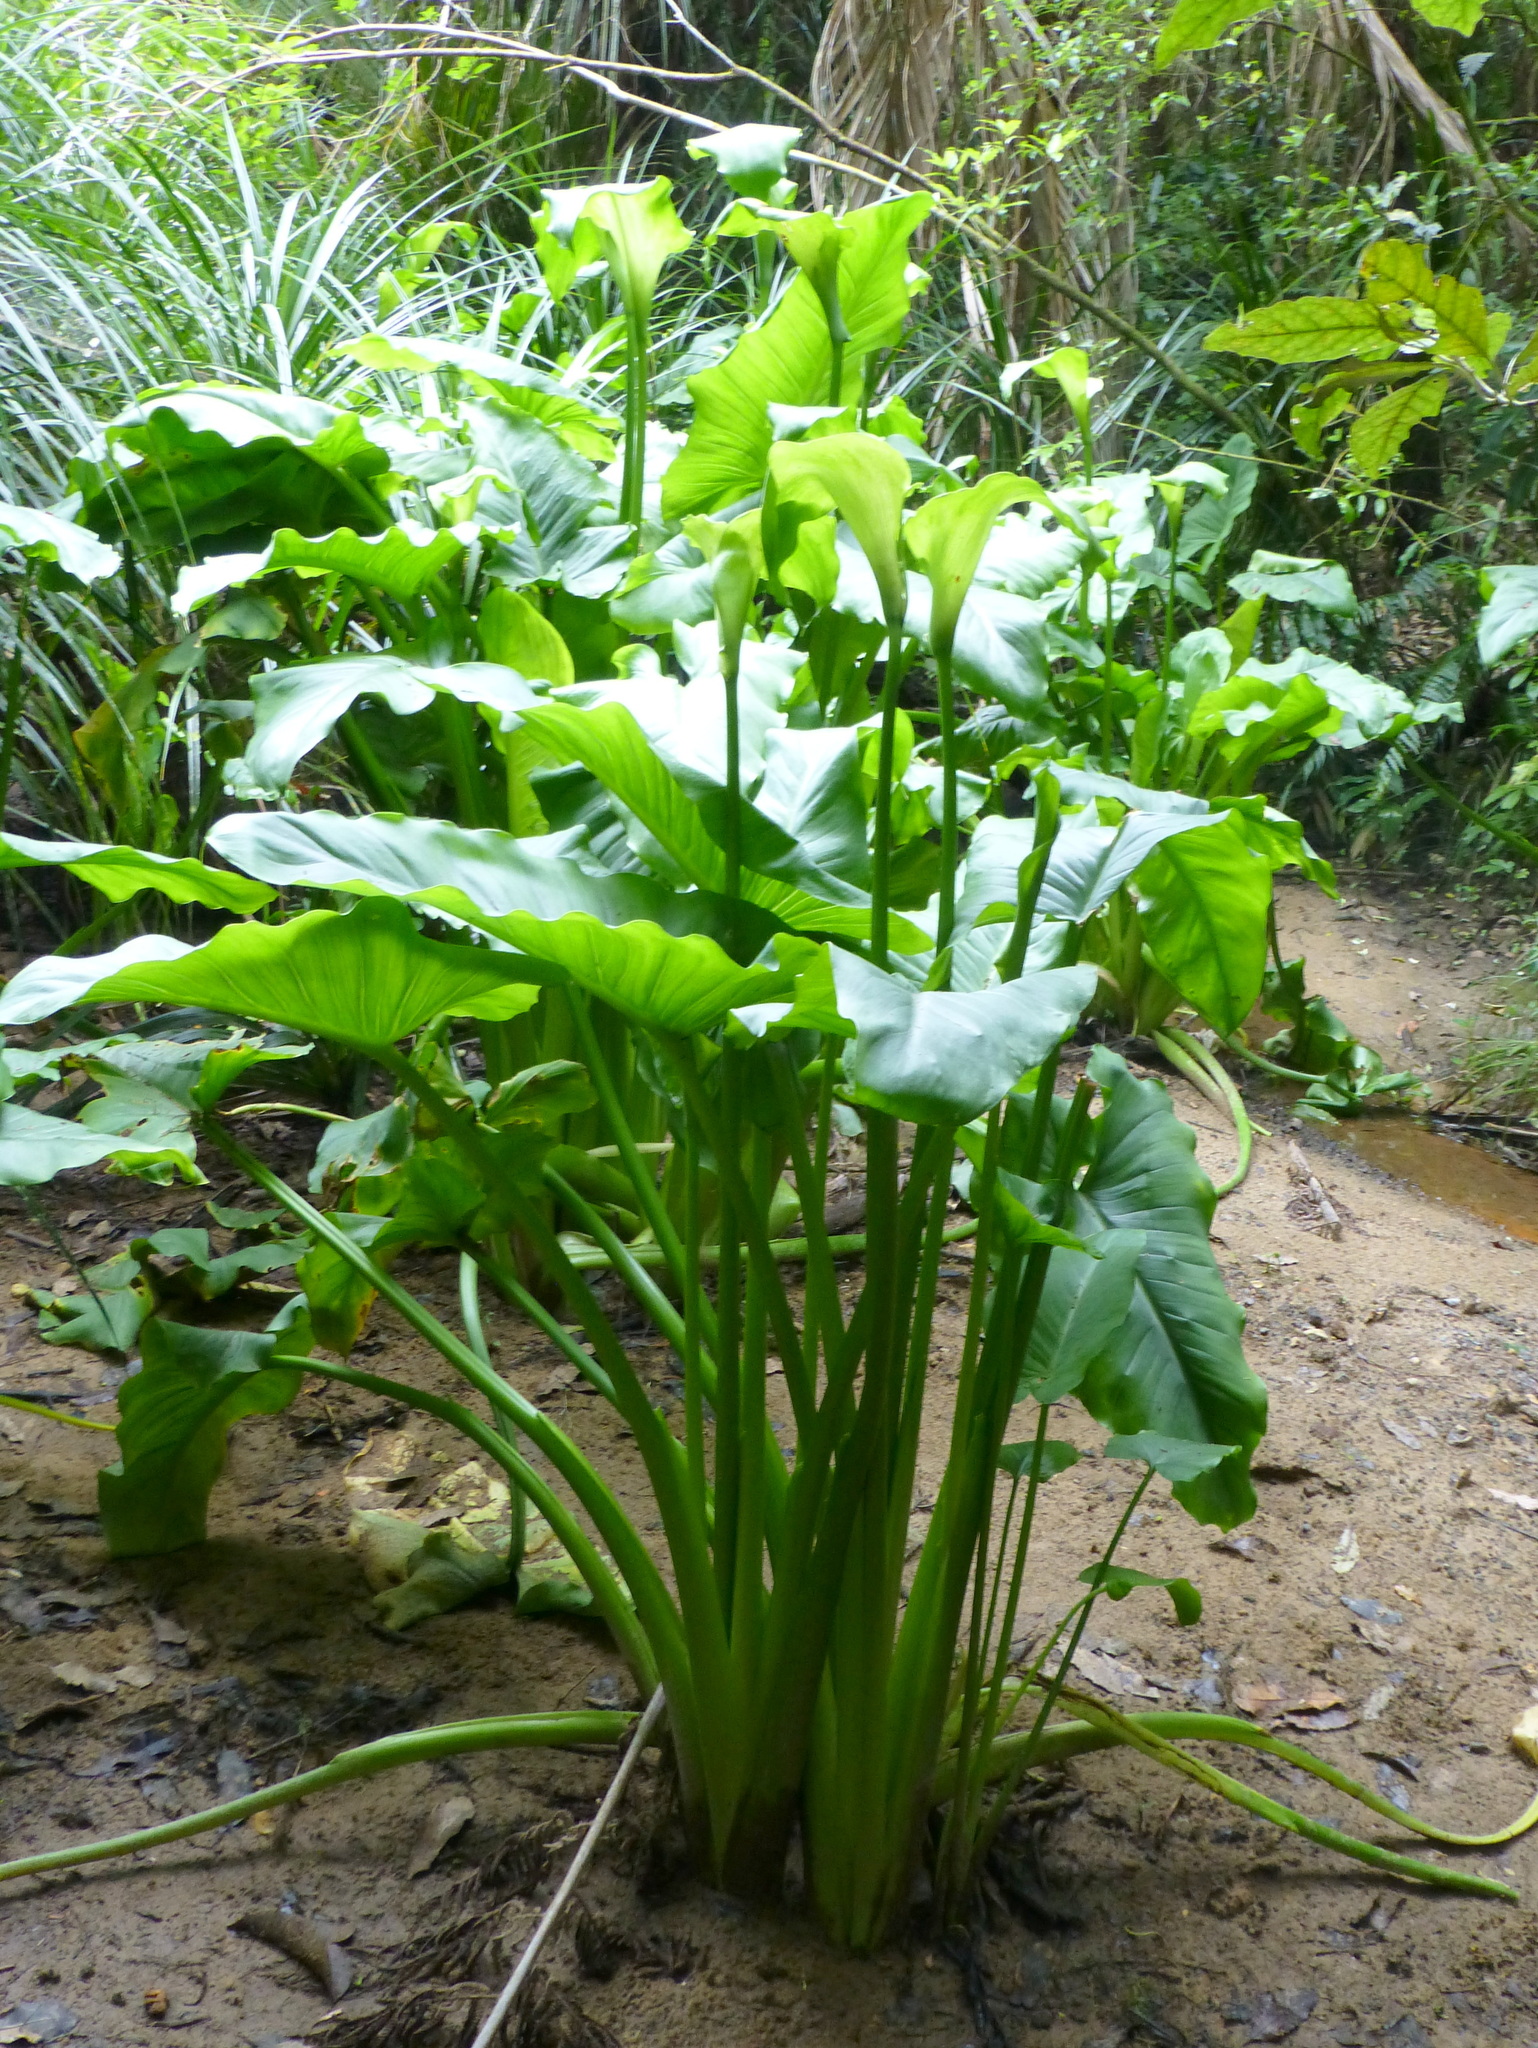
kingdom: Plantae
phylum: Tracheophyta
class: Liliopsida
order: Alismatales
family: Araceae
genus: Zantedeschia
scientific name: Zantedeschia aethiopica
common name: Altar-lily
